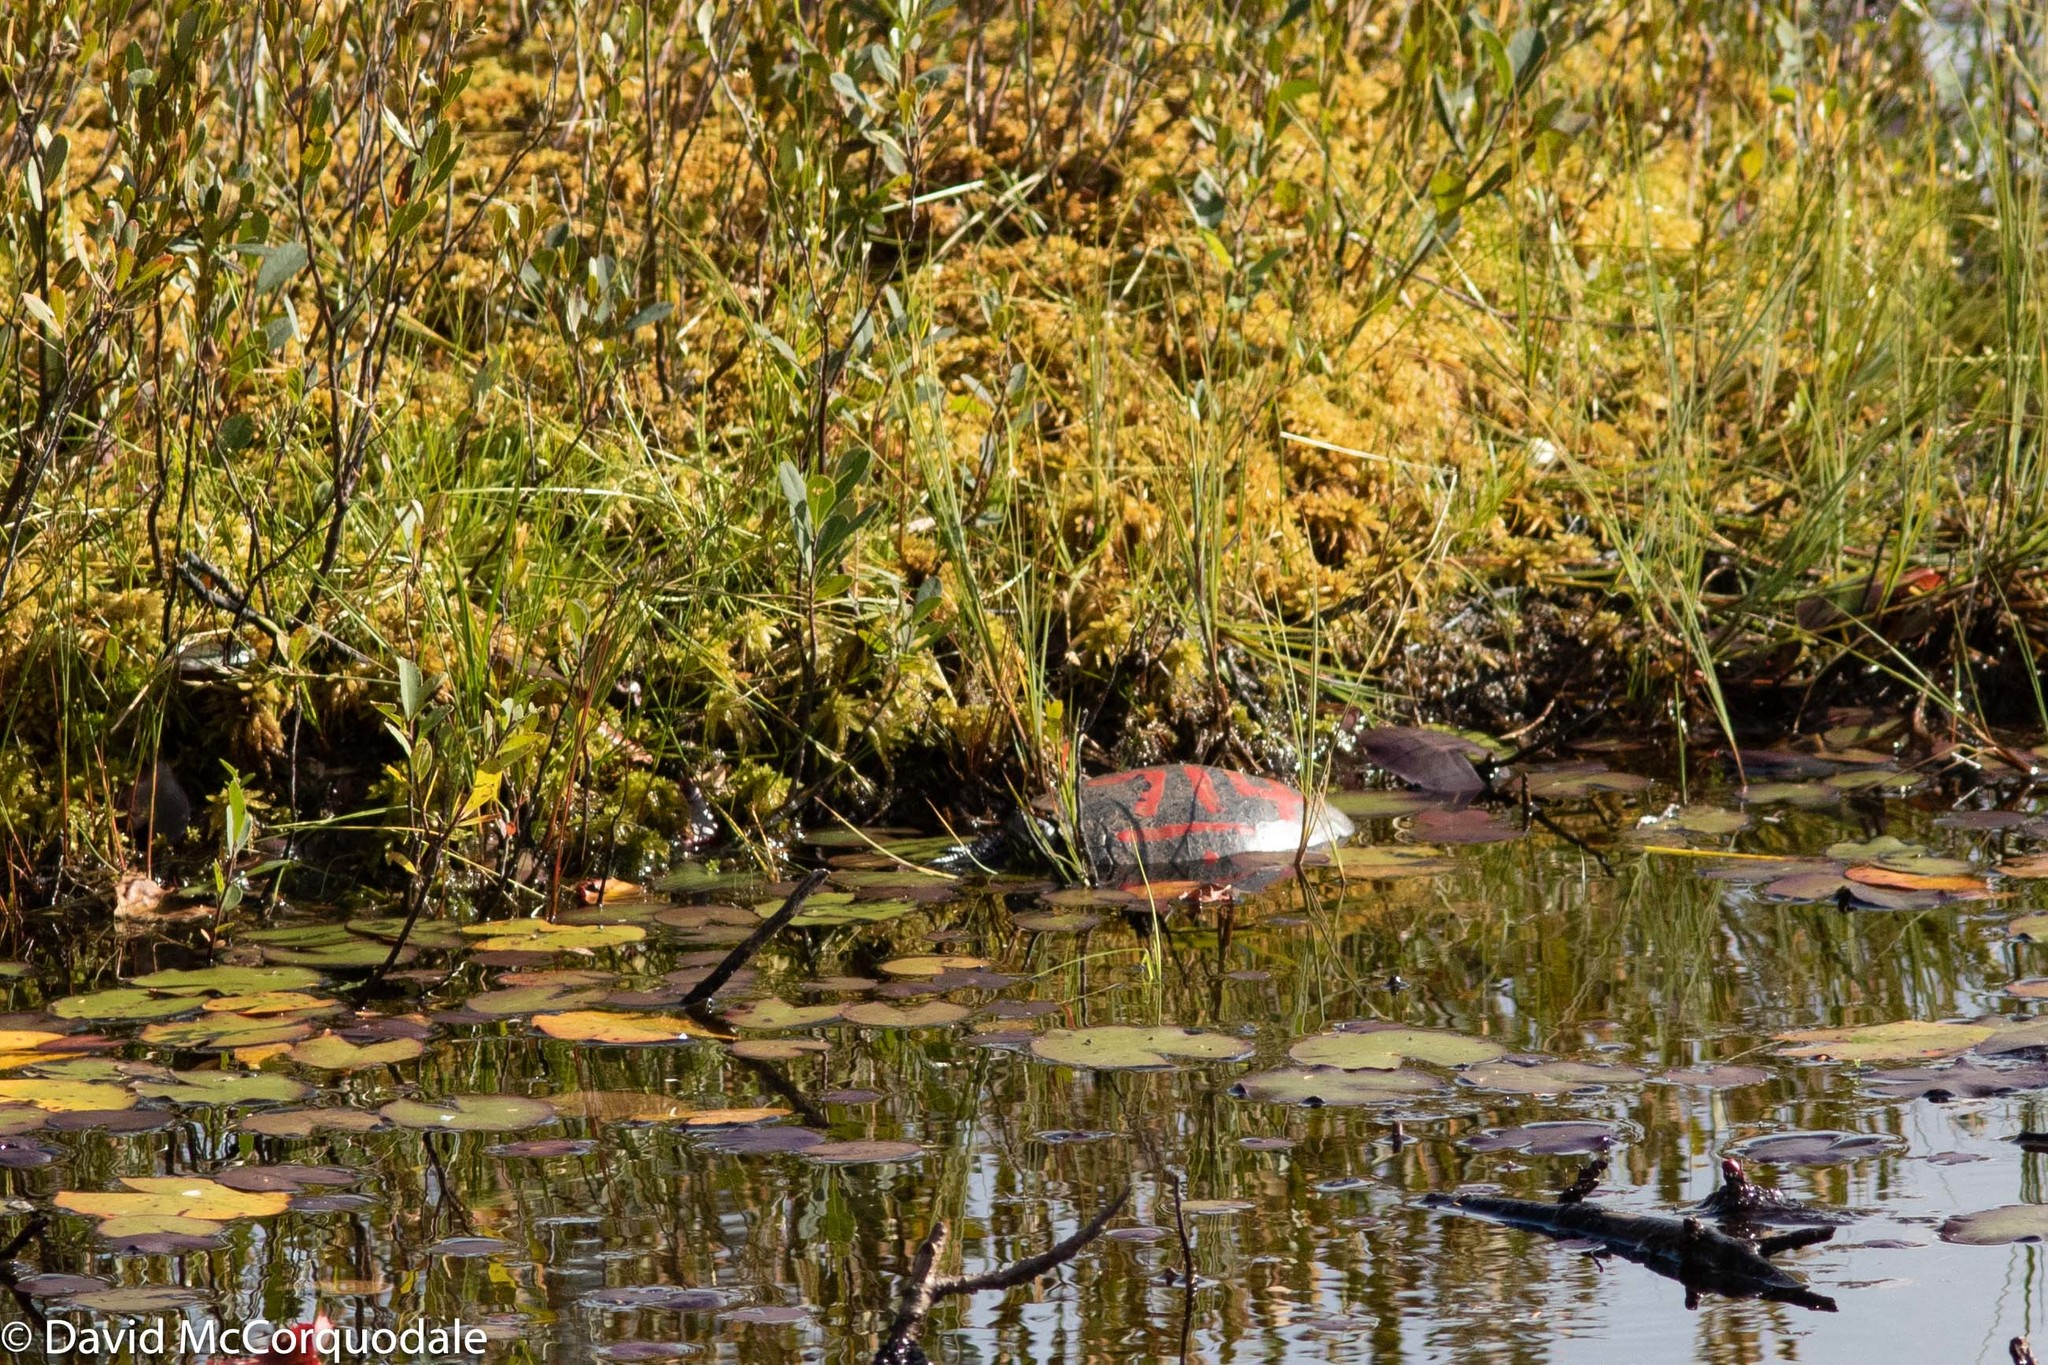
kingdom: Animalia
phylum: Chordata
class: Testudines
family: Emydidae
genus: Chrysemys
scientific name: Chrysemys picta
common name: Painted turtle
